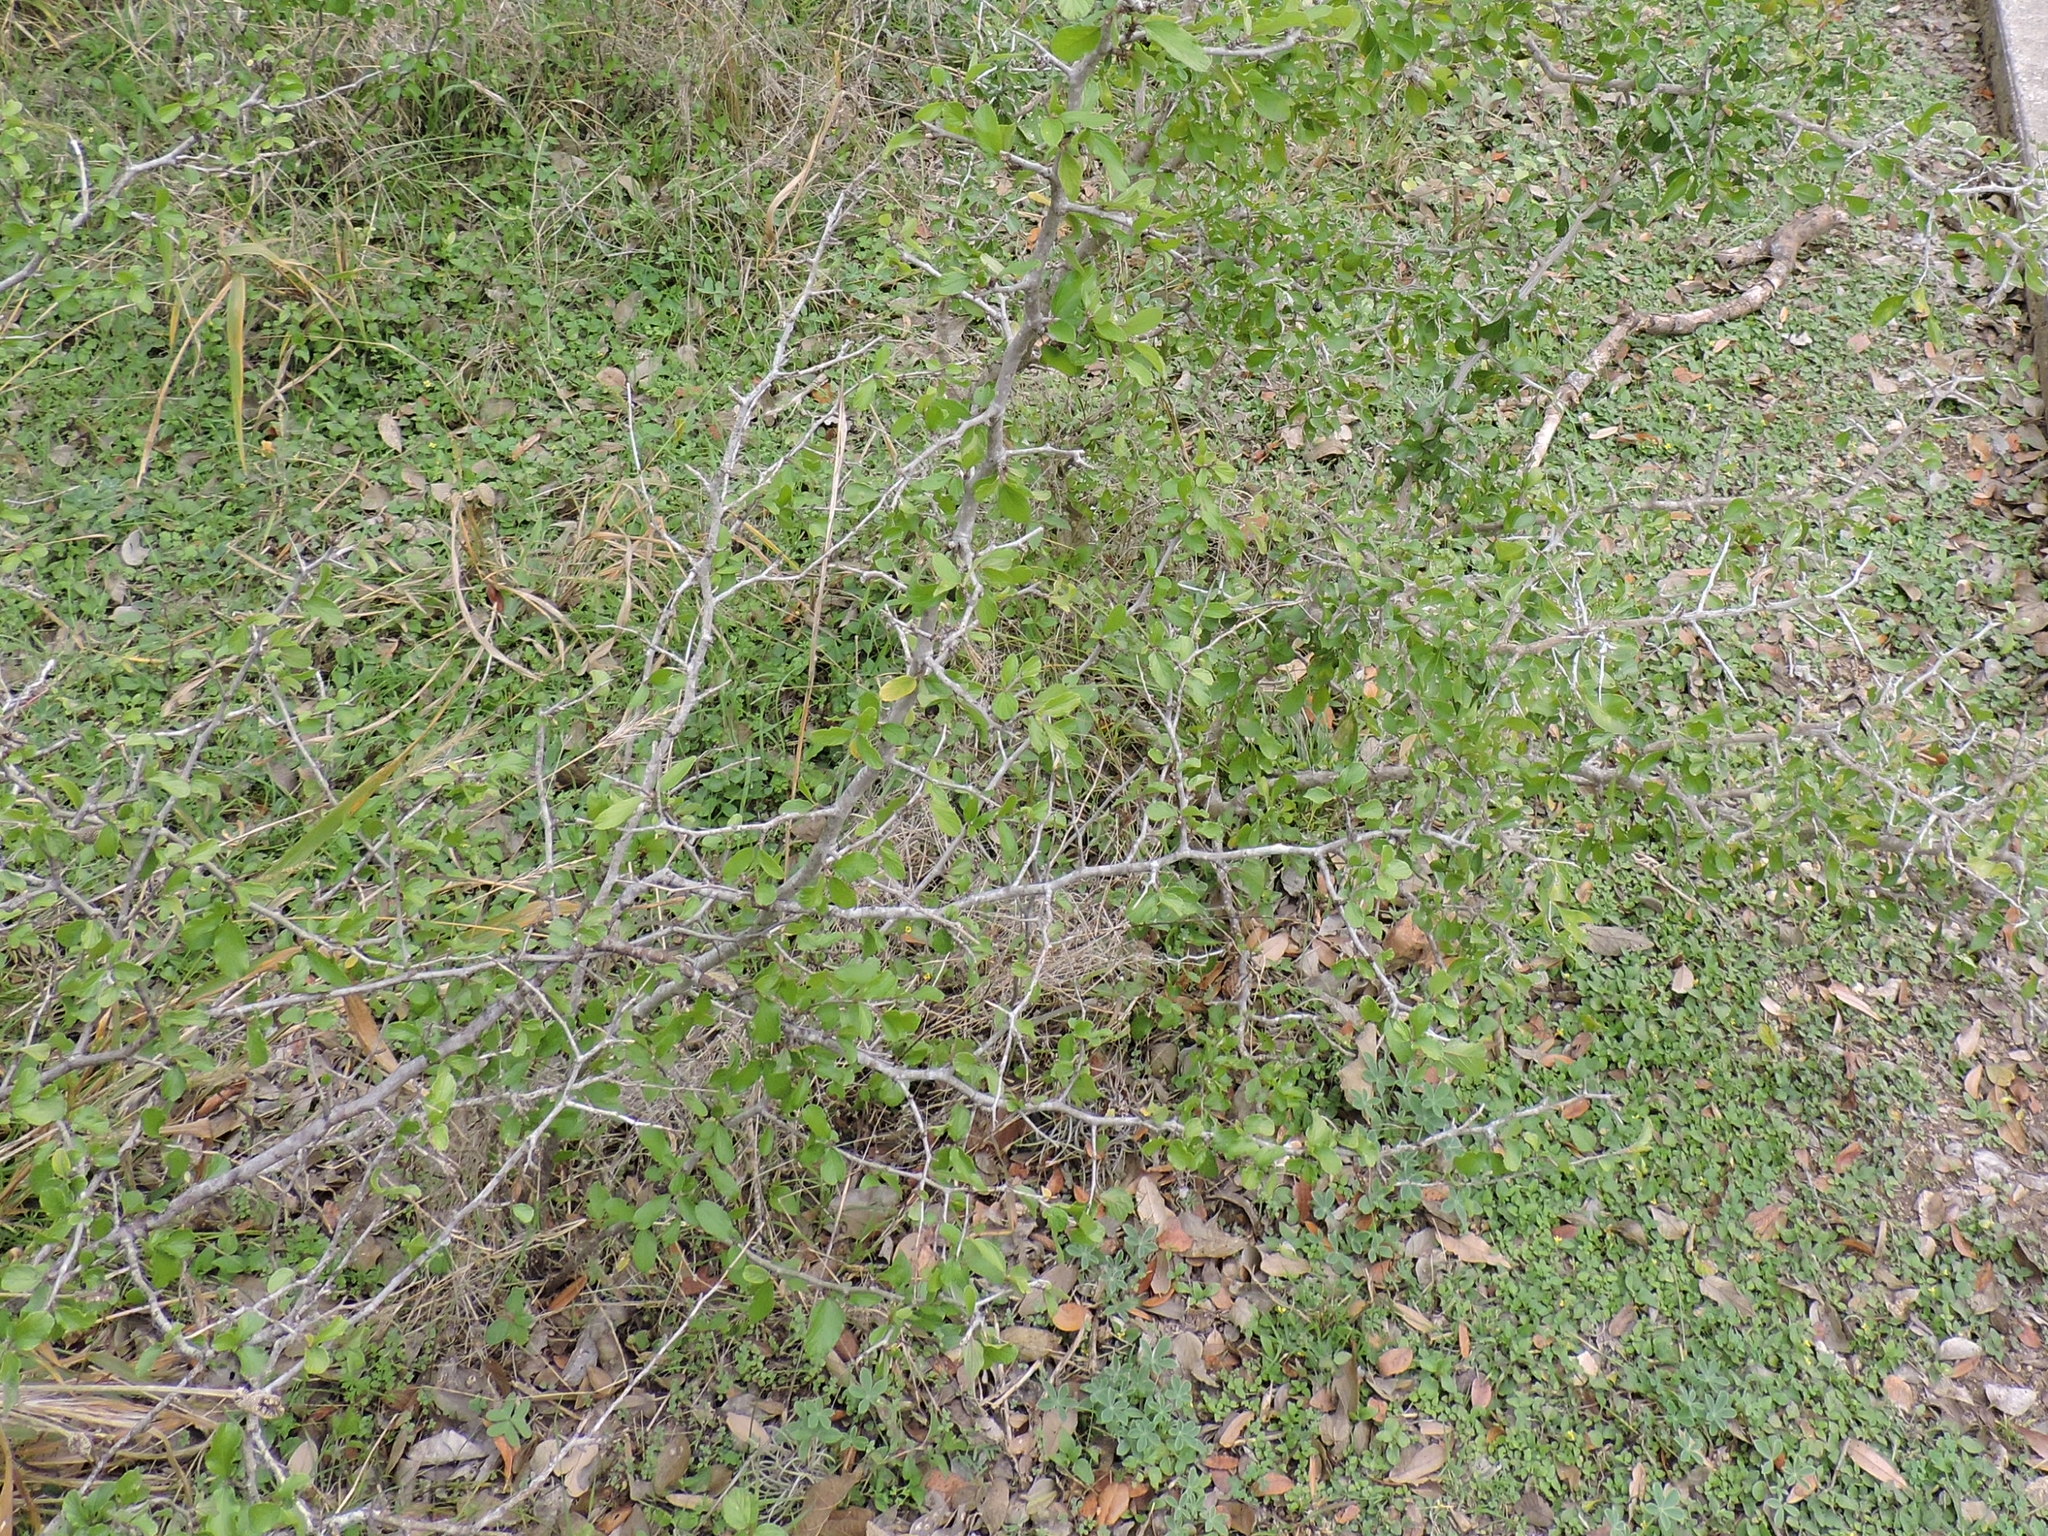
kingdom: Plantae
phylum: Tracheophyta
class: Magnoliopsida
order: Rosales
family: Rhamnaceae
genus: Colubrina
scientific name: Colubrina texensis
